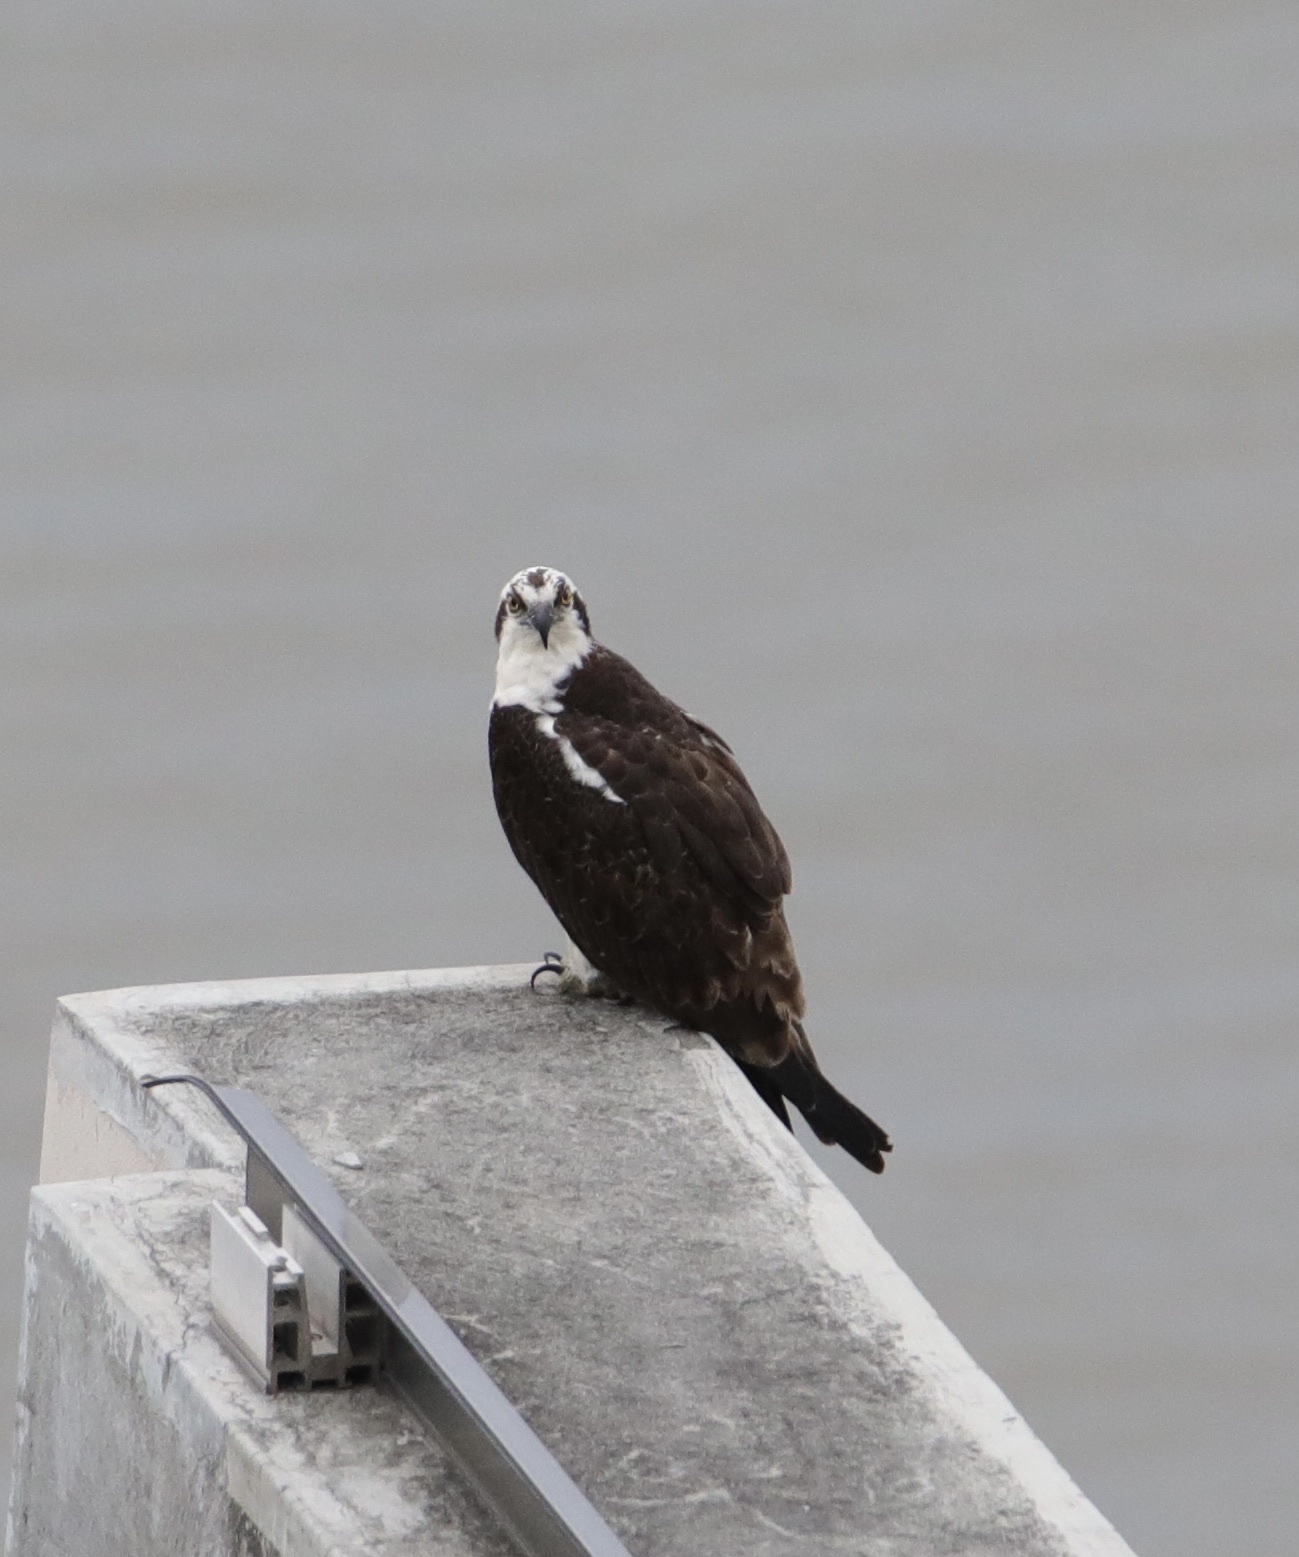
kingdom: Animalia
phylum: Chordata
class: Aves
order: Accipitriformes
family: Pandionidae
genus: Pandion
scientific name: Pandion haliaetus
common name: Osprey
